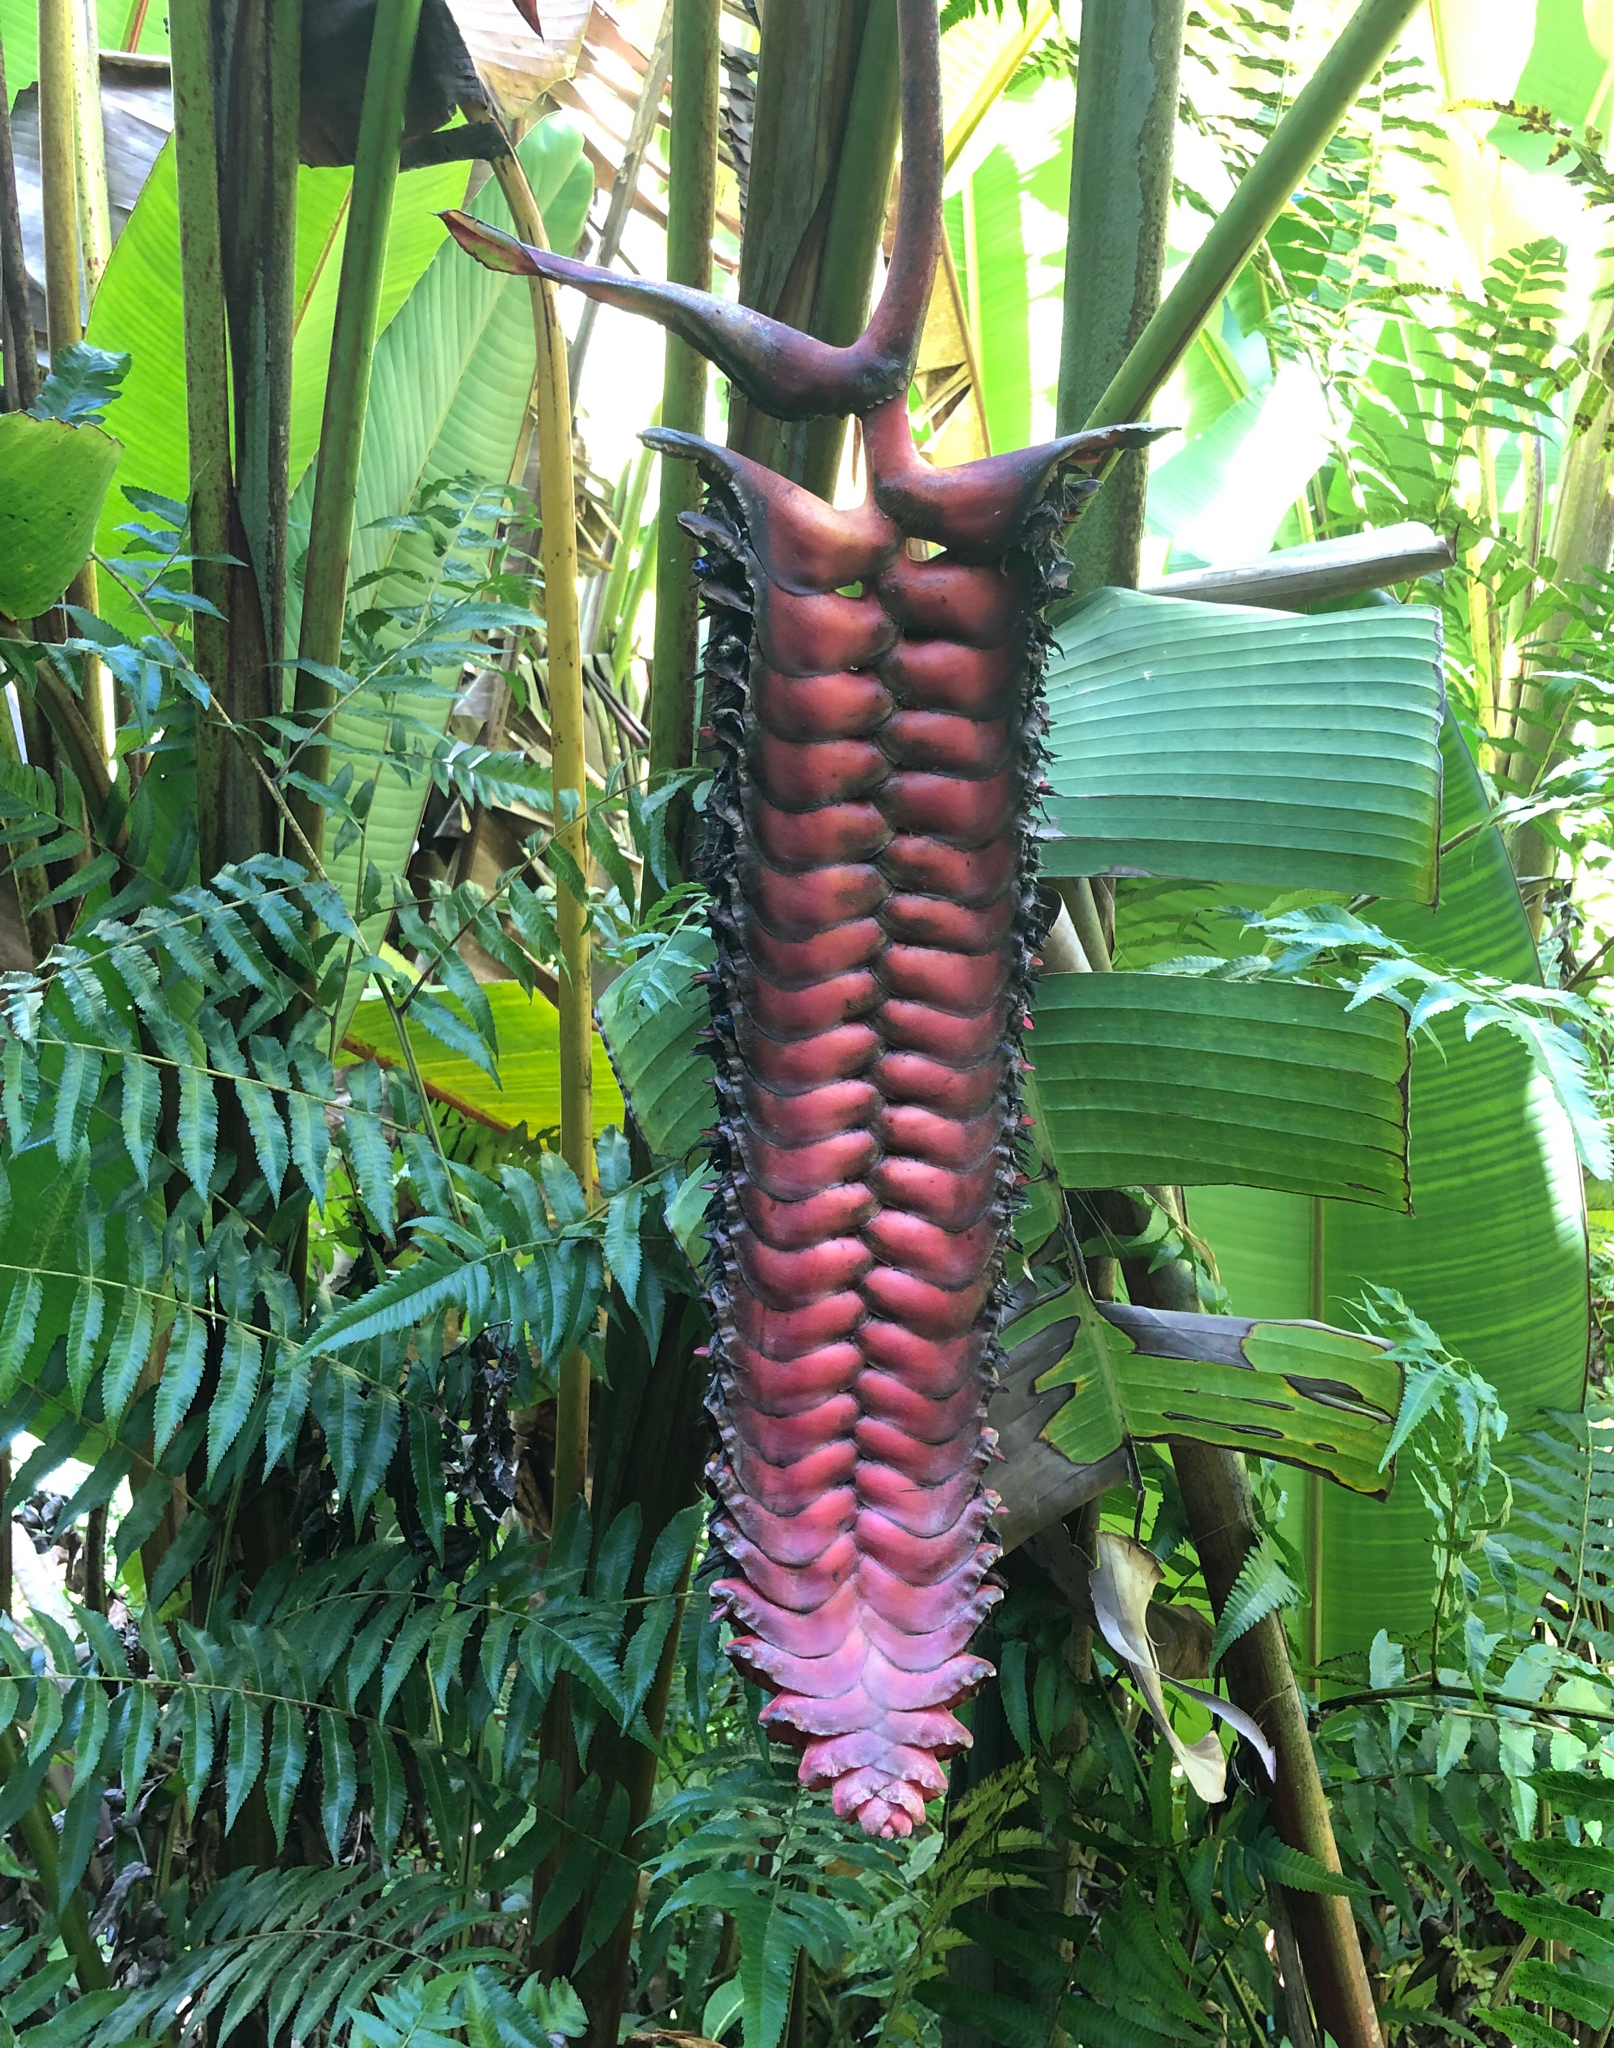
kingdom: Plantae
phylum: Tracheophyta
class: Liliopsida
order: Zingiberales
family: Heliconiaceae
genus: Heliconia
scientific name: Heliconia mariae
